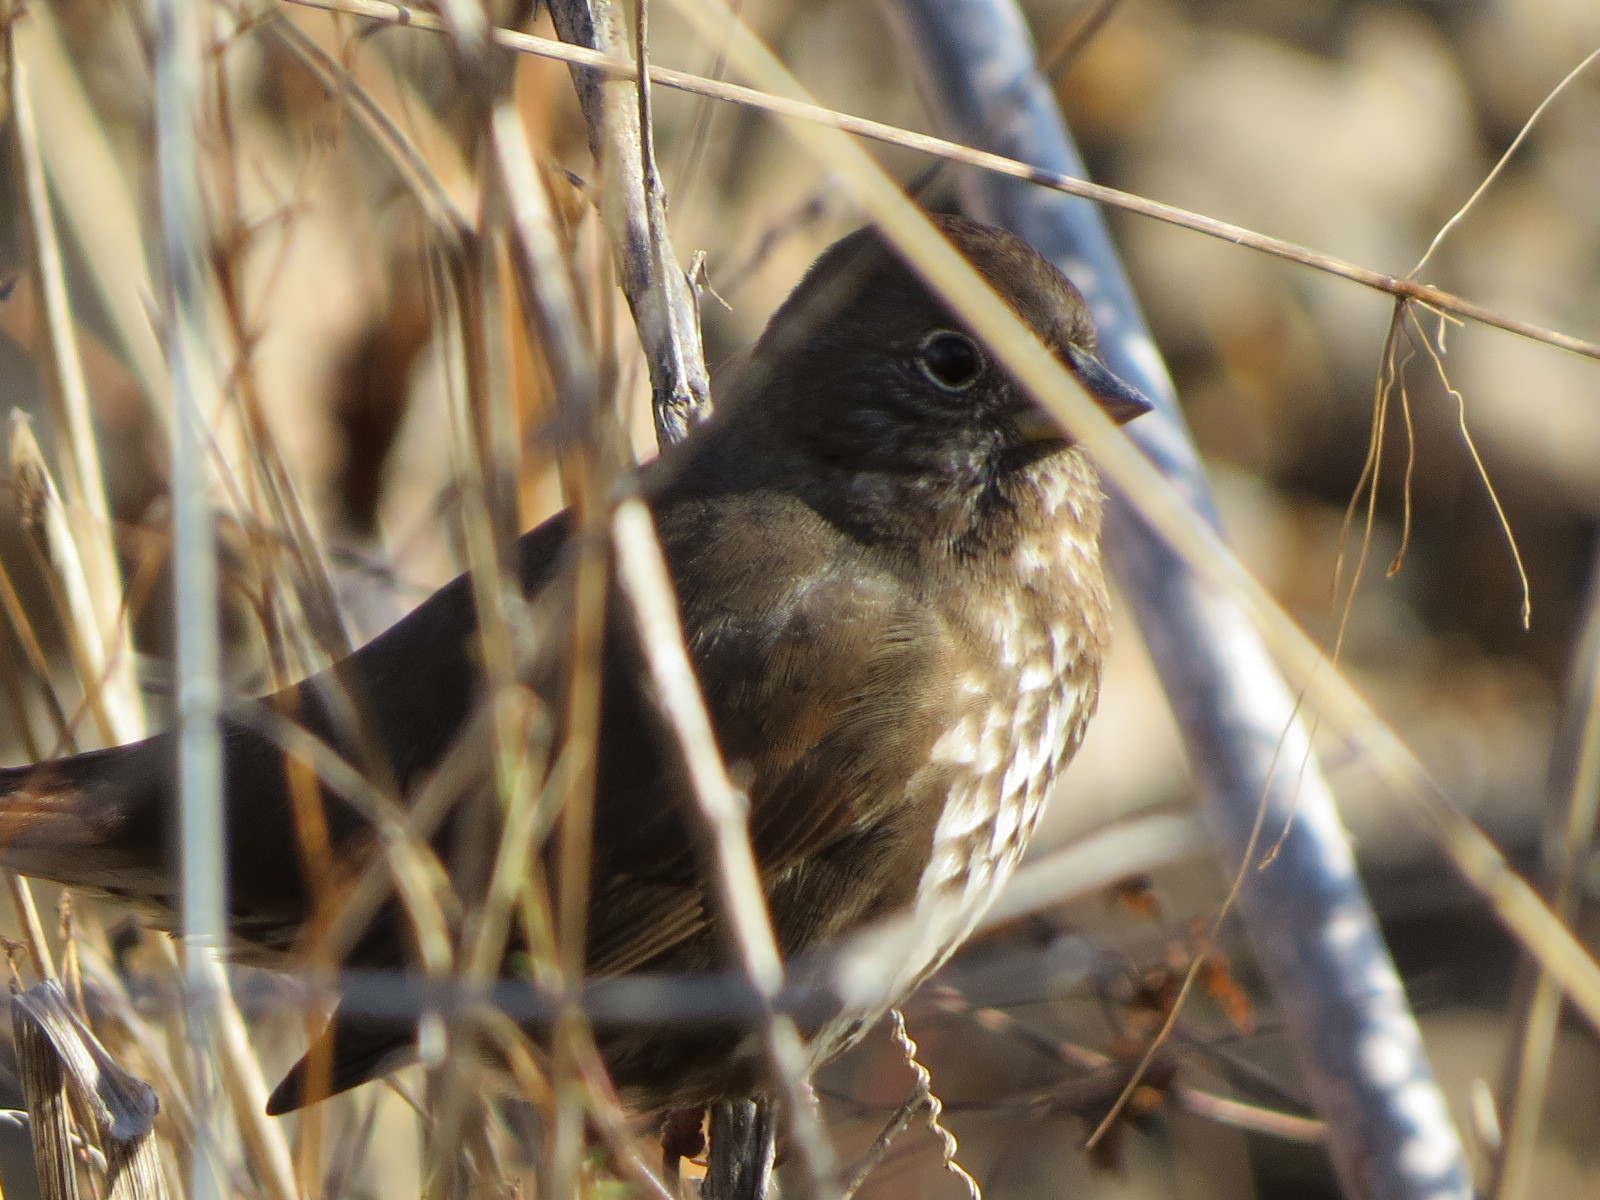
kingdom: Animalia
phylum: Chordata
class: Aves
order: Passeriformes
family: Passerellidae
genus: Passerella
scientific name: Passerella iliaca
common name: Fox sparrow
